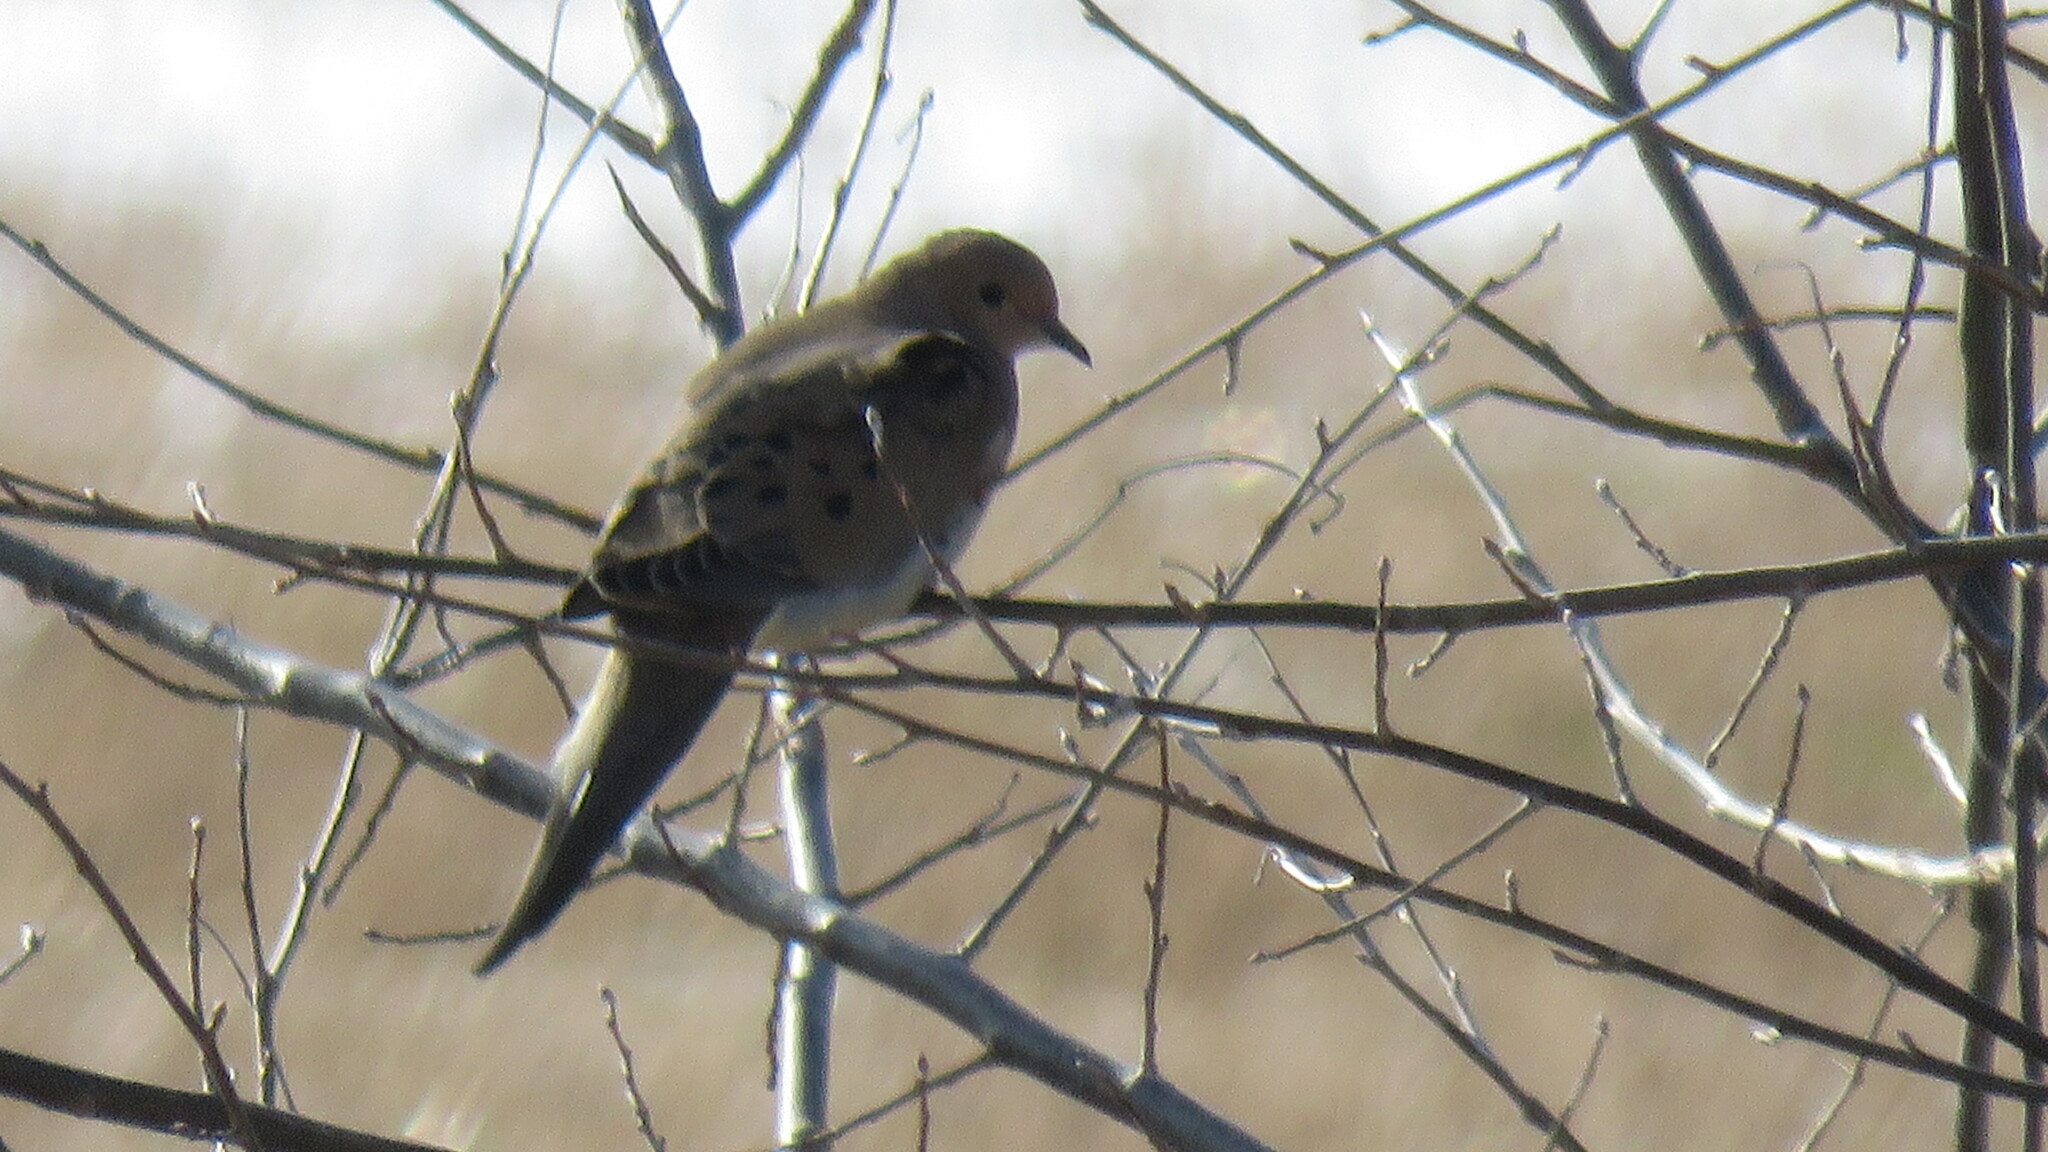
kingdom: Animalia
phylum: Chordata
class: Aves
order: Columbiformes
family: Columbidae
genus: Zenaida
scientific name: Zenaida macroura
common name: Mourning dove
